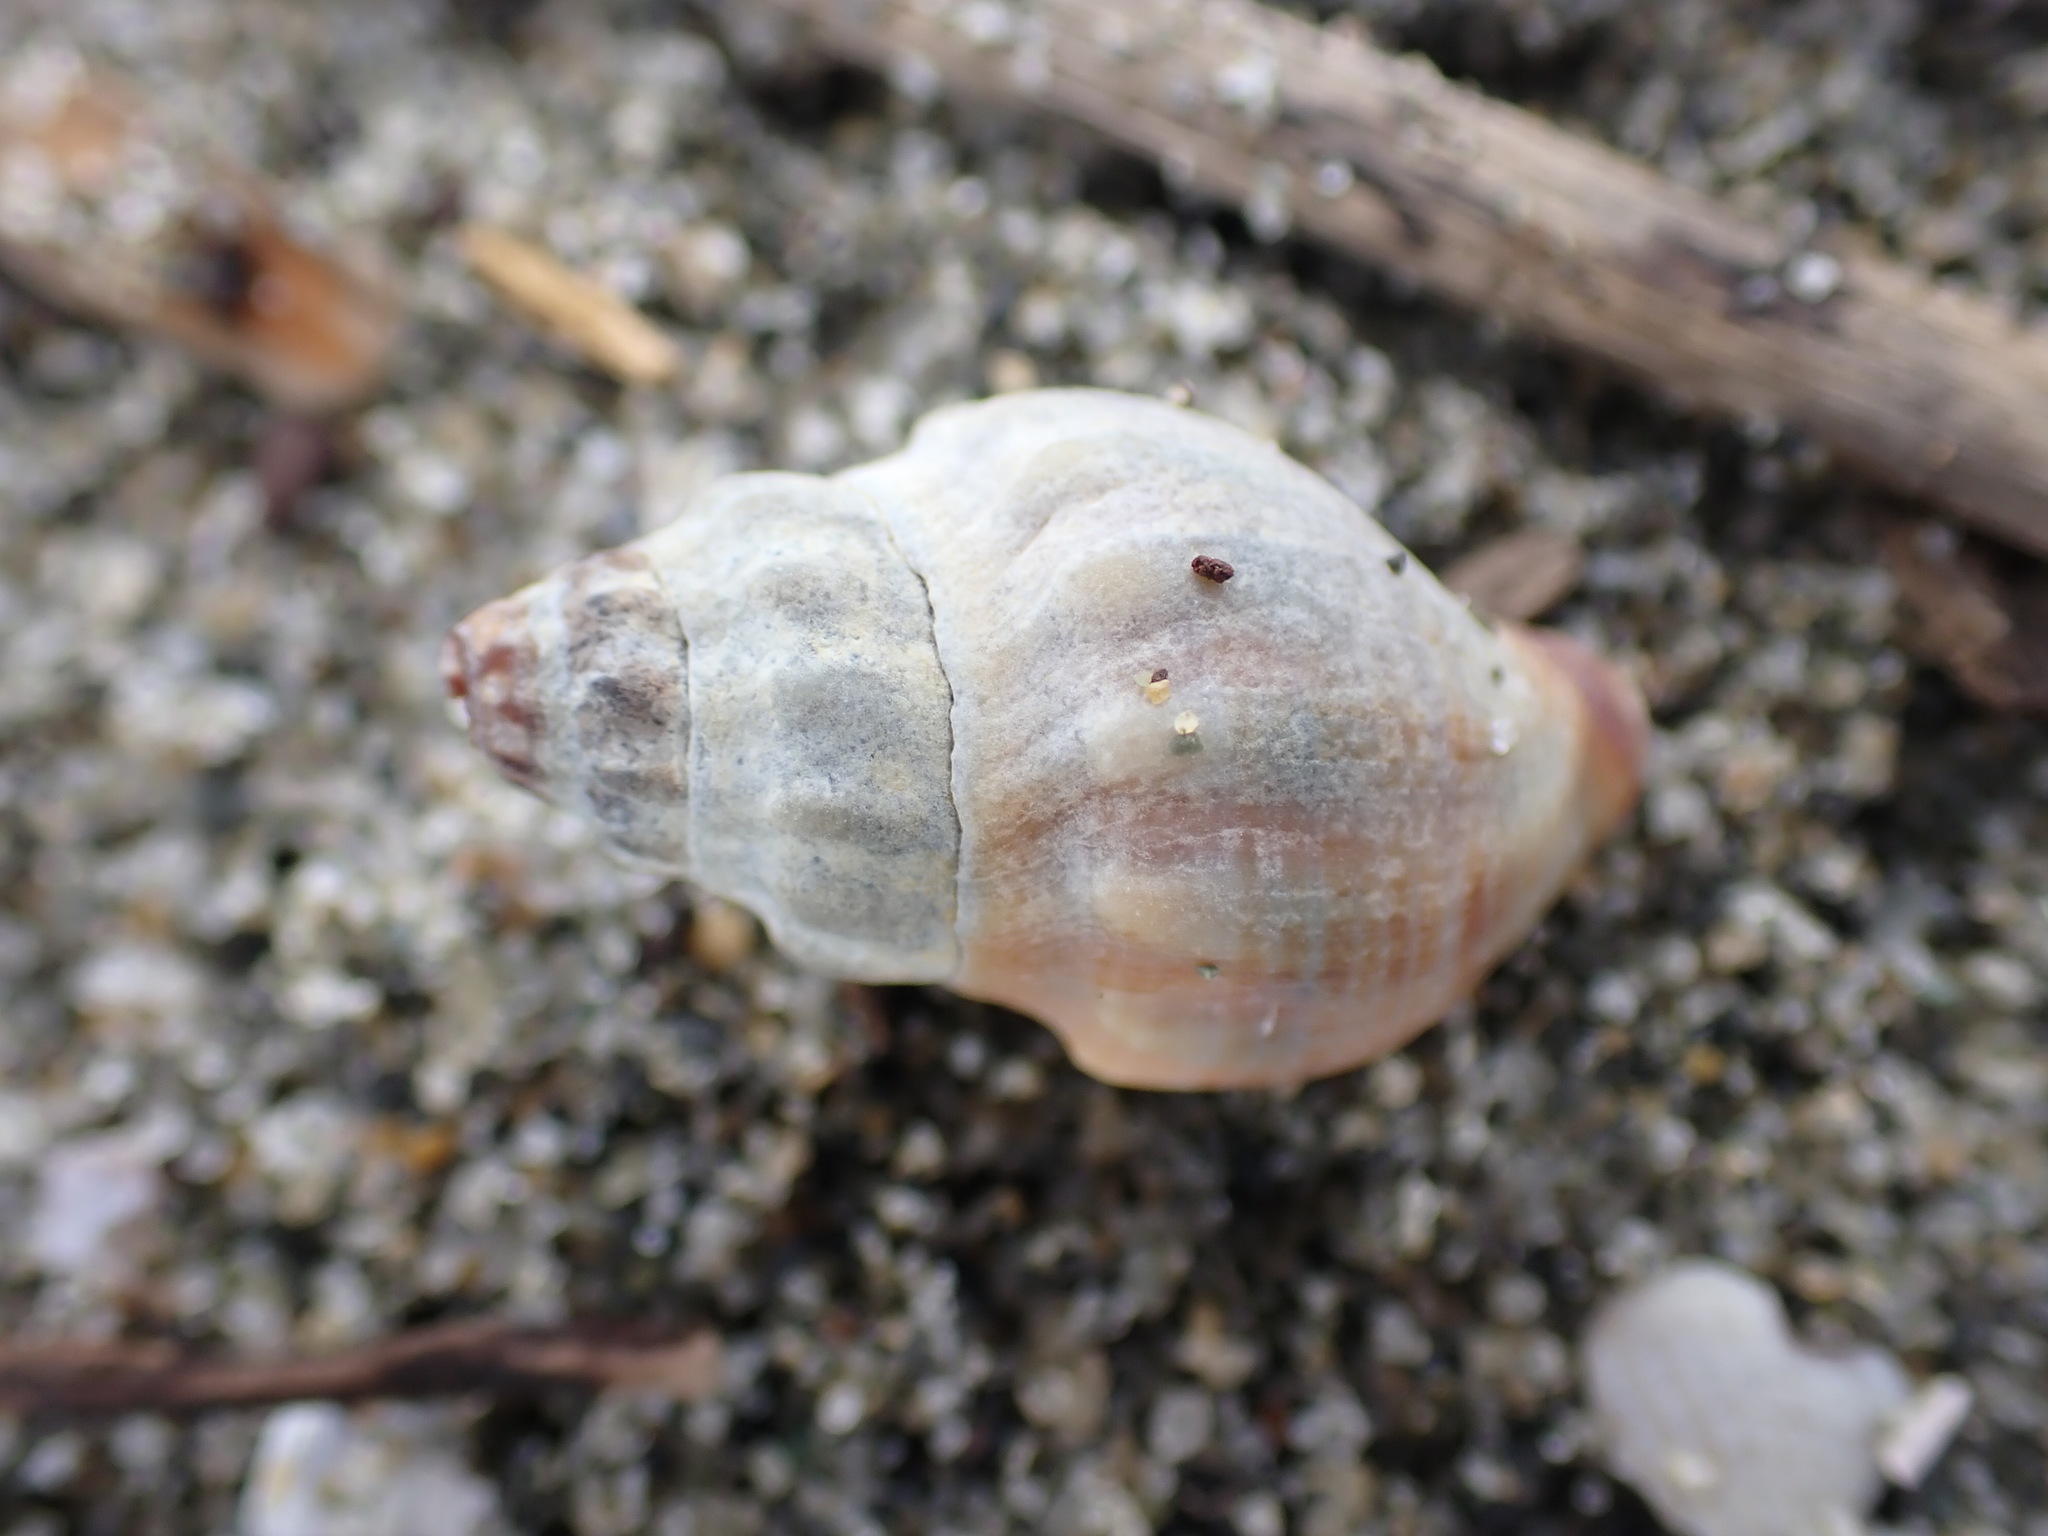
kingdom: Animalia
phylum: Mollusca
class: Gastropoda
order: Neogastropoda
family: Cominellidae
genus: Cominella
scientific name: Cominella glandiformis
